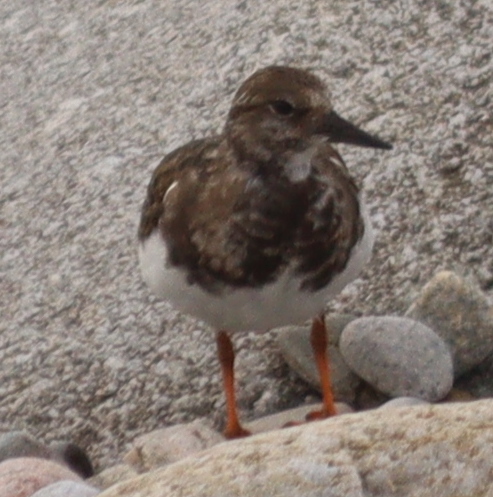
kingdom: Animalia
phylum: Chordata
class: Aves
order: Charadriiformes
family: Scolopacidae
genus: Arenaria
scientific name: Arenaria interpres
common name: Ruddy turnstone
